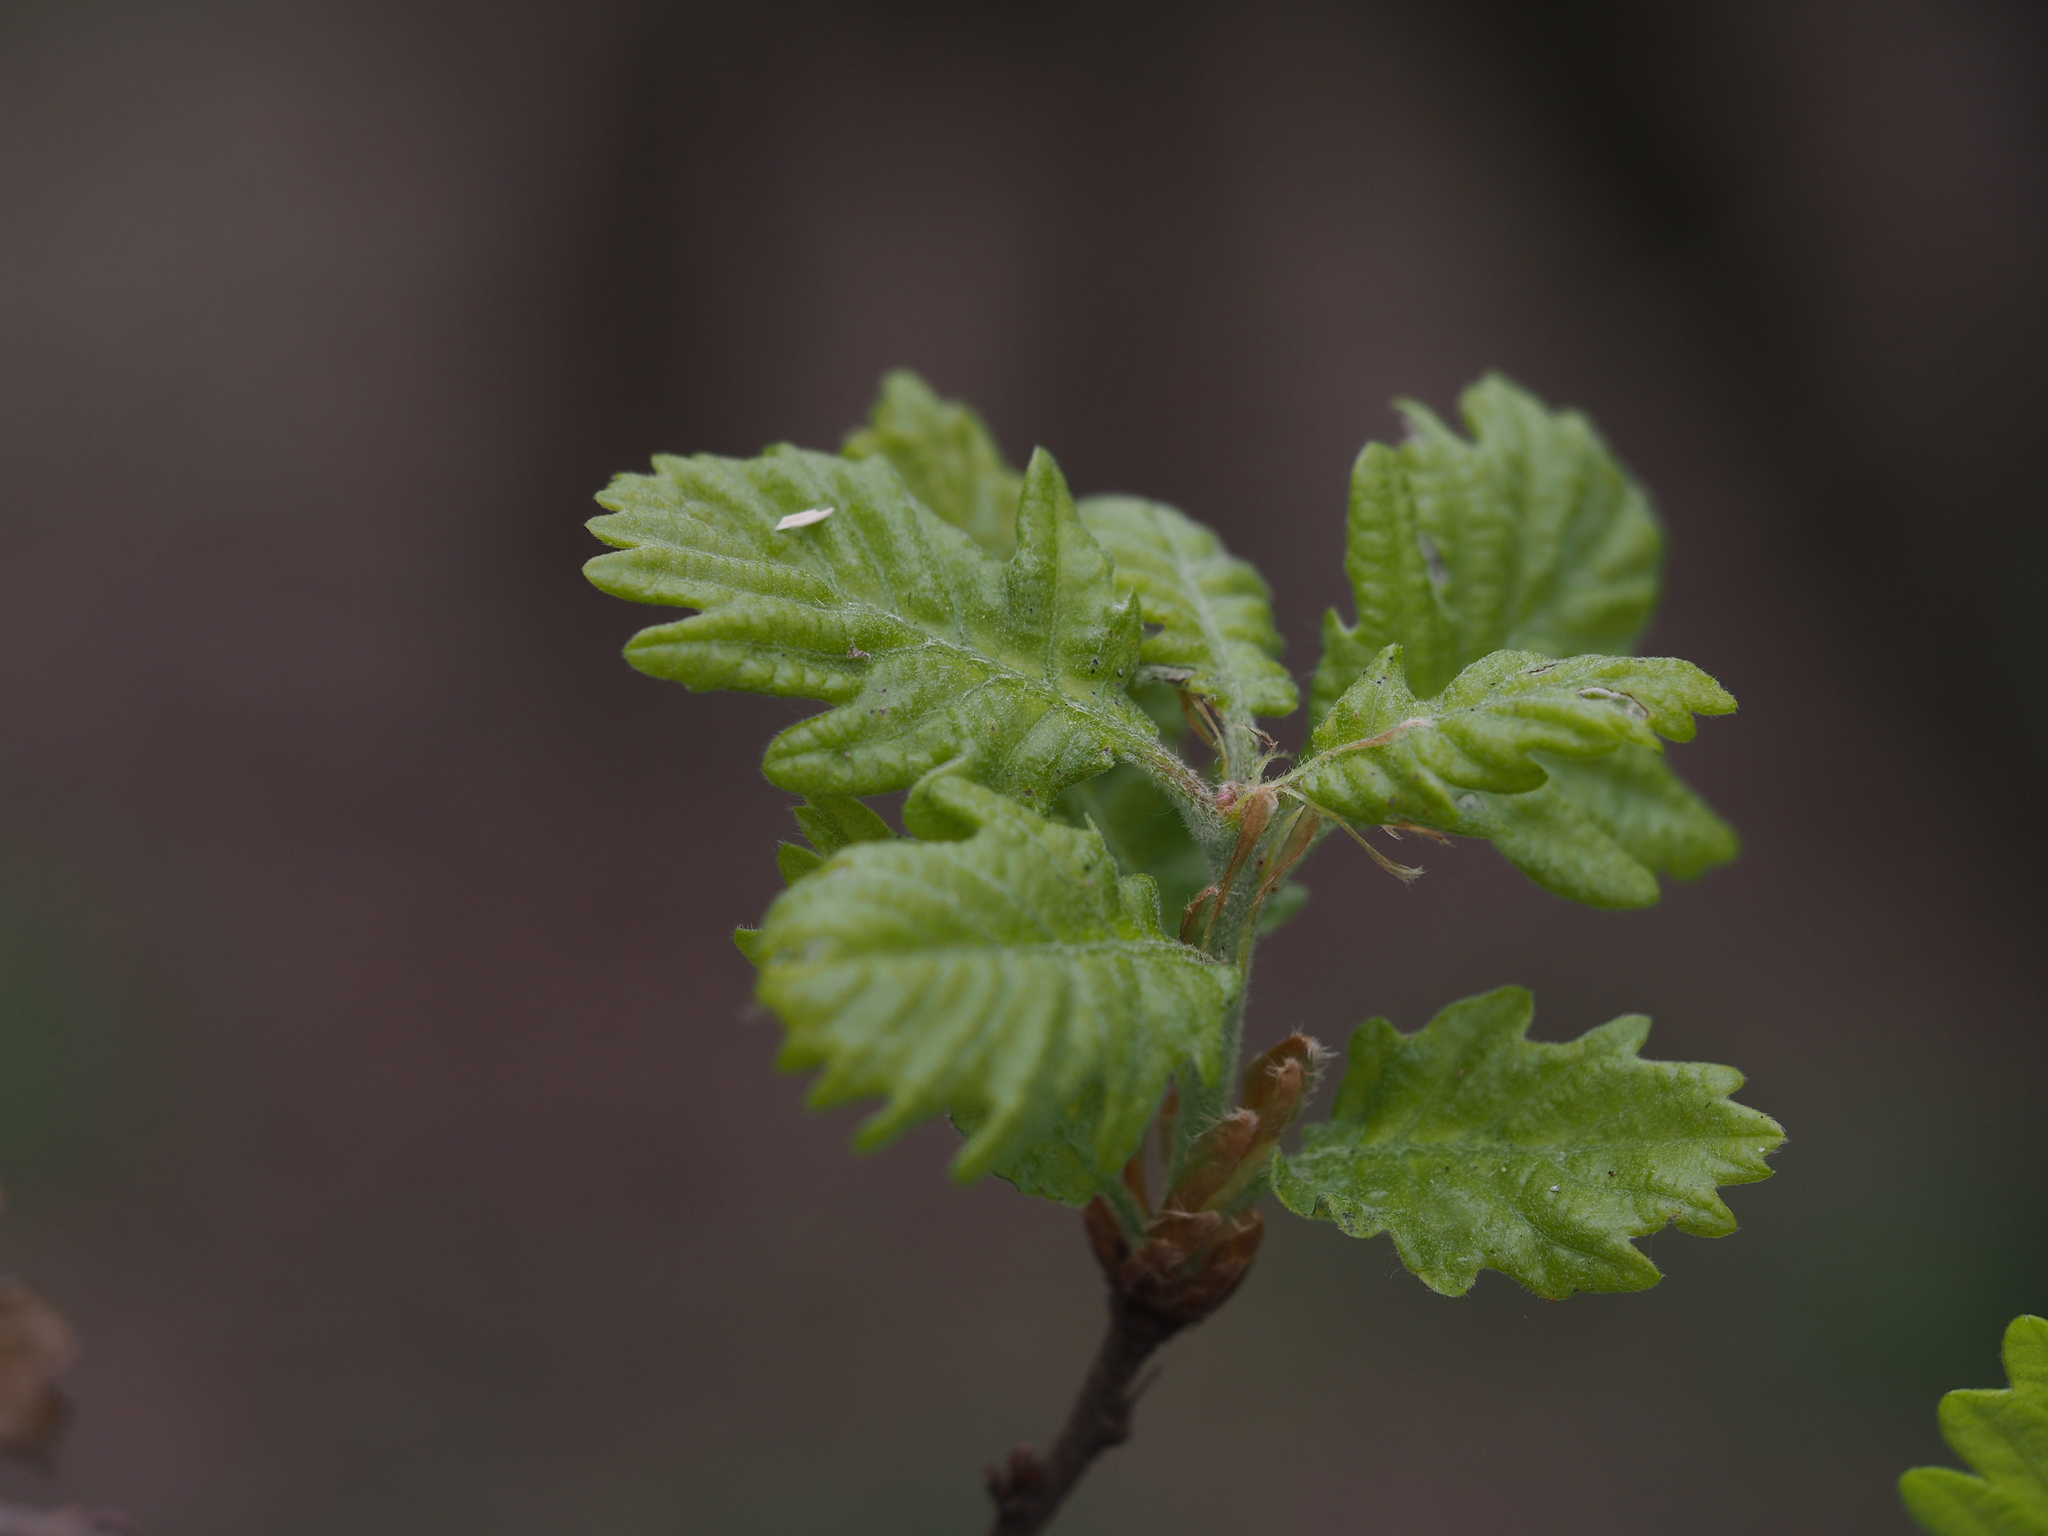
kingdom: Plantae
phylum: Tracheophyta
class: Magnoliopsida
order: Fagales
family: Fagaceae
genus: Quercus
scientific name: Quercus pubescens
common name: Downy oak
